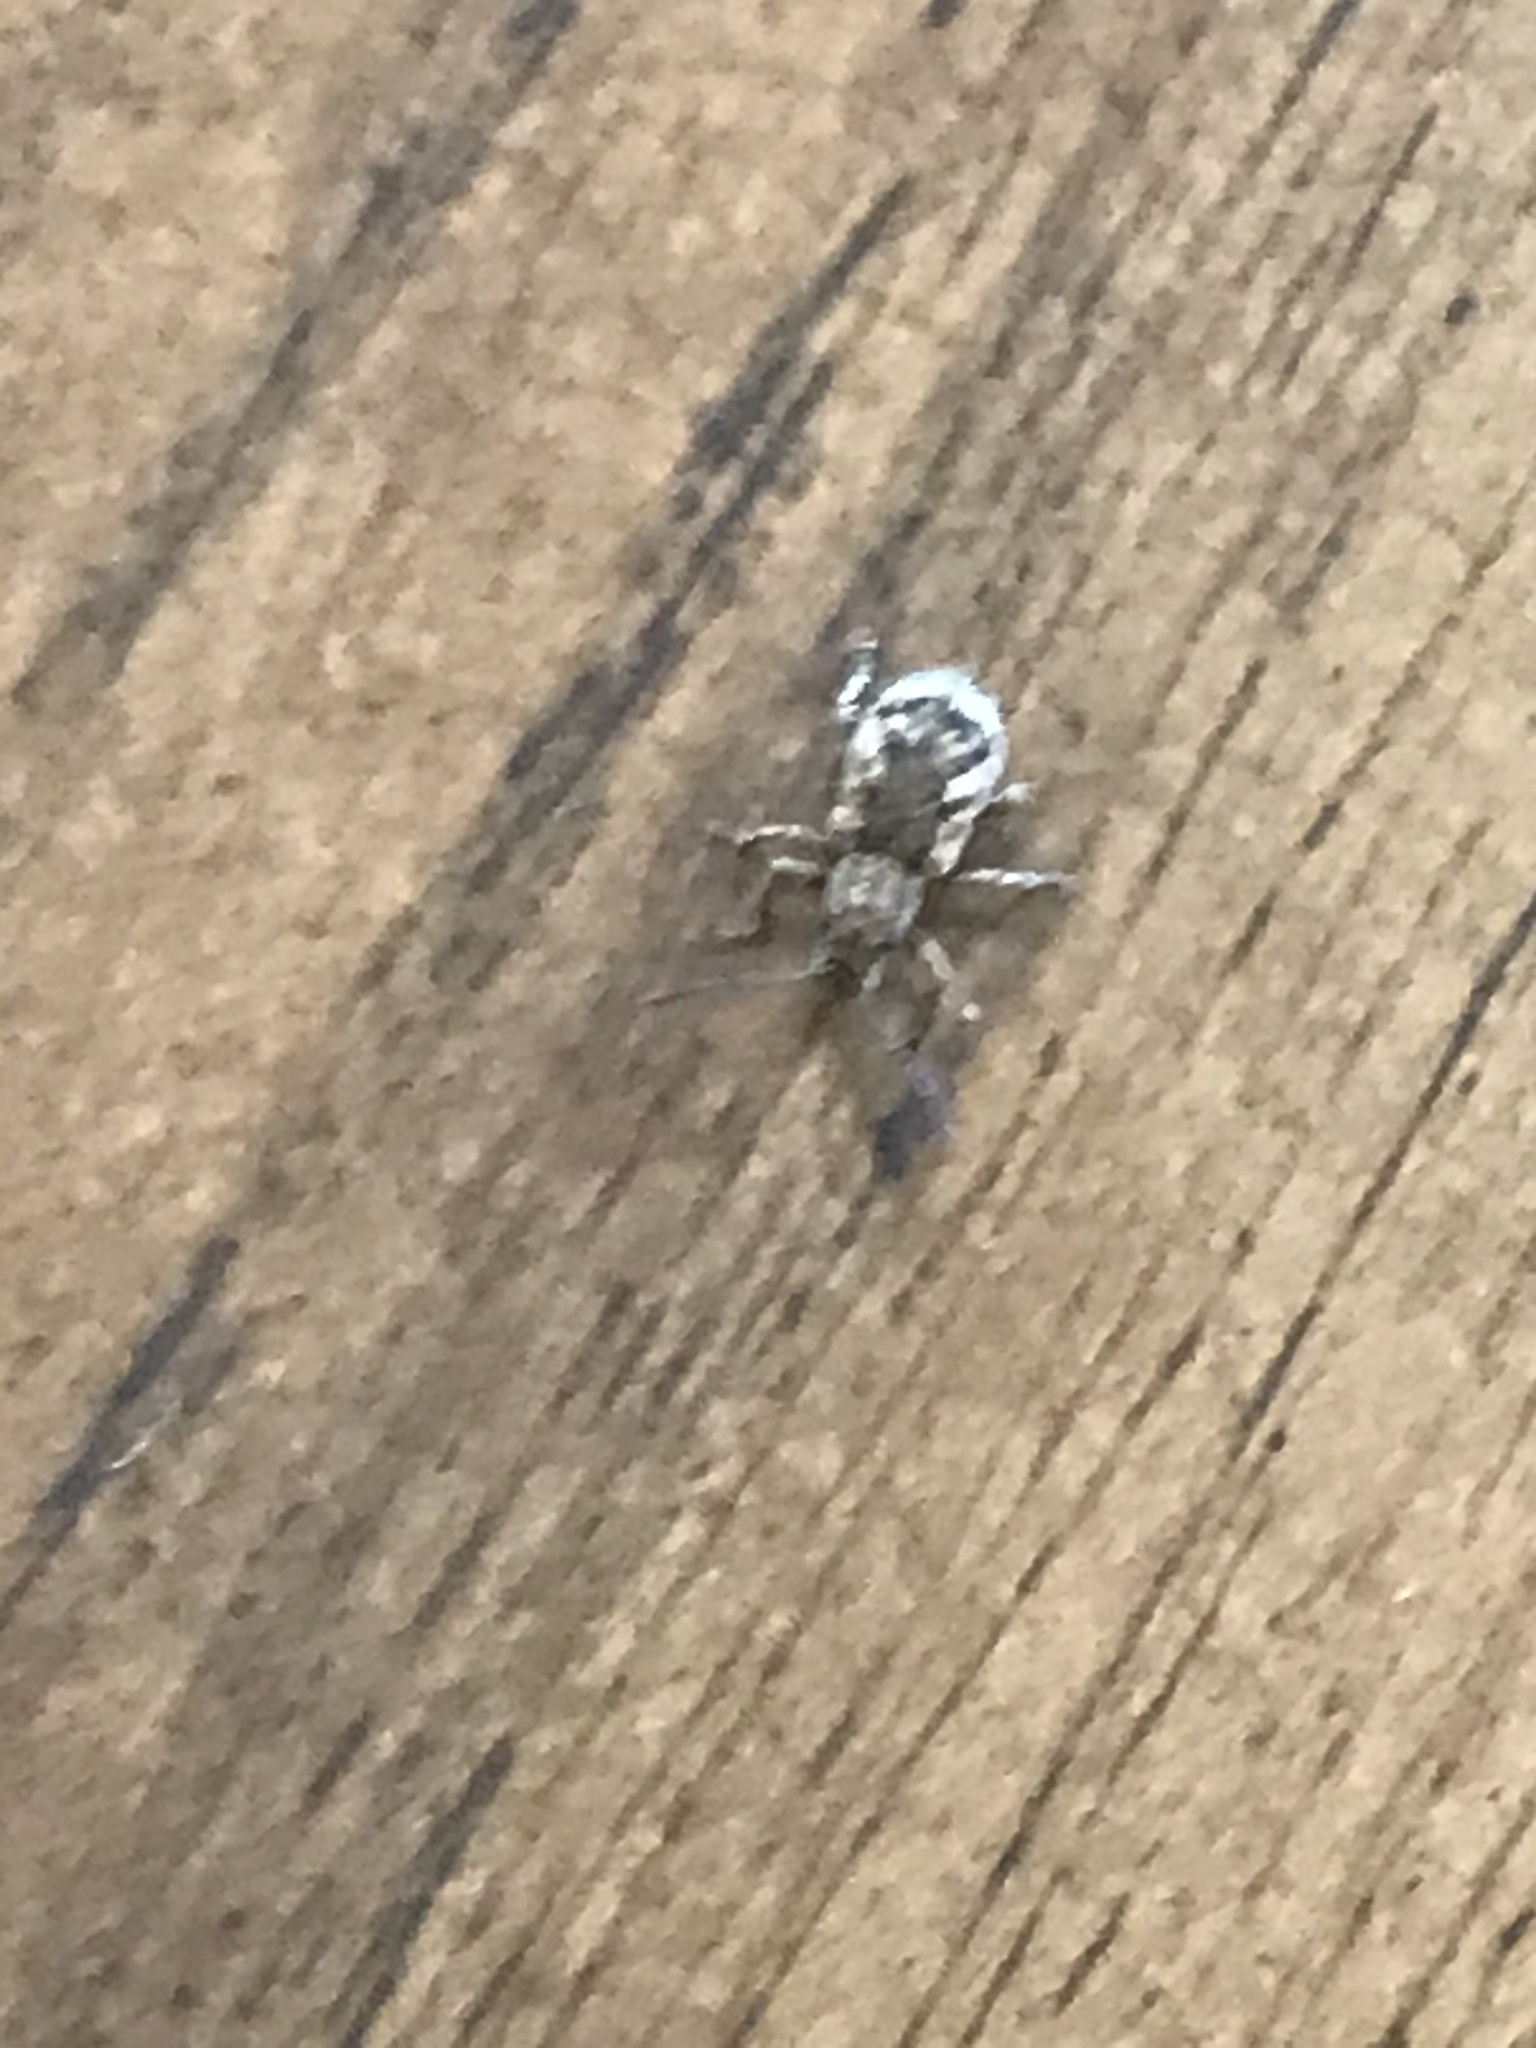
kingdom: Animalia
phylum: Arthropoda
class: Insecta
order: Coleoptera
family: Curculionidae
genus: Pseudoedophrys
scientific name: Pseudoedophrys hilleri
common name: Weevil
